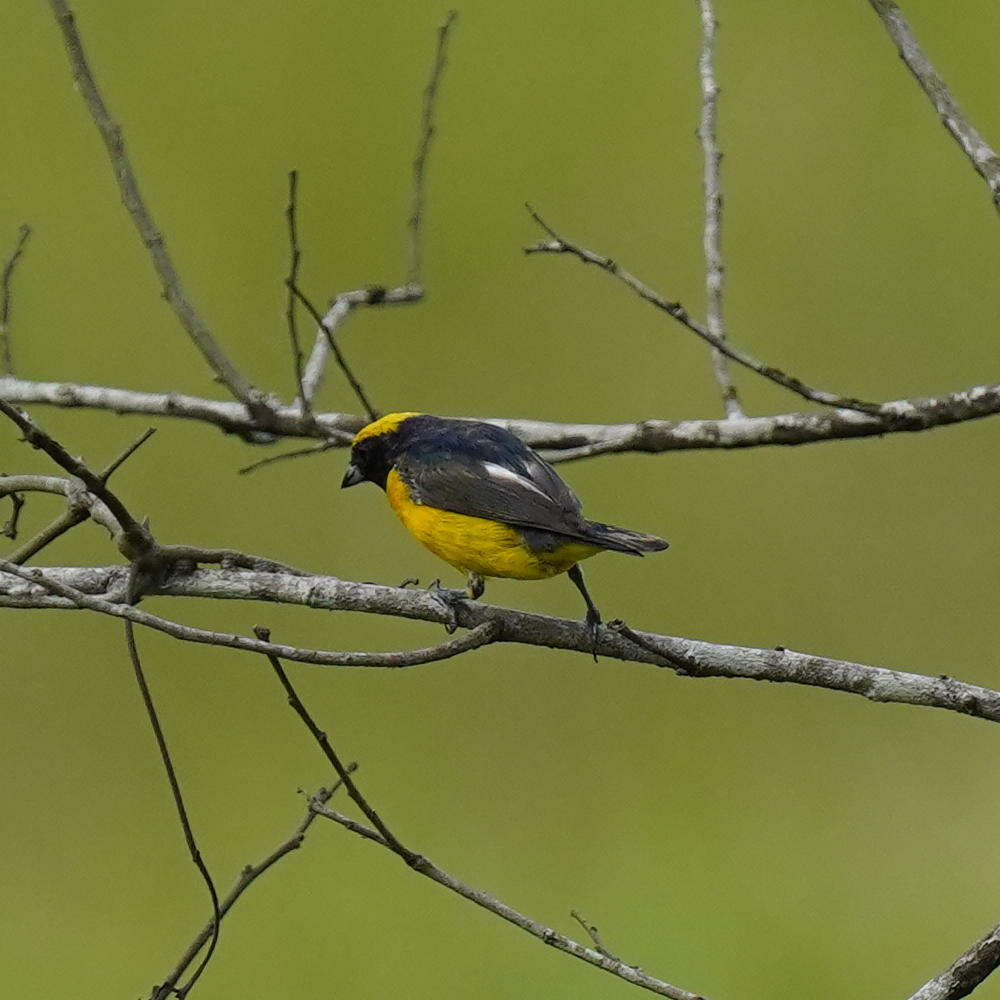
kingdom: Animalia
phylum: Chordata
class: Aves
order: Passeriformes
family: Fringillidae
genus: Euphonia
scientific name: Euphonia luteicapilla
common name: Yellow-crowned euphonia
